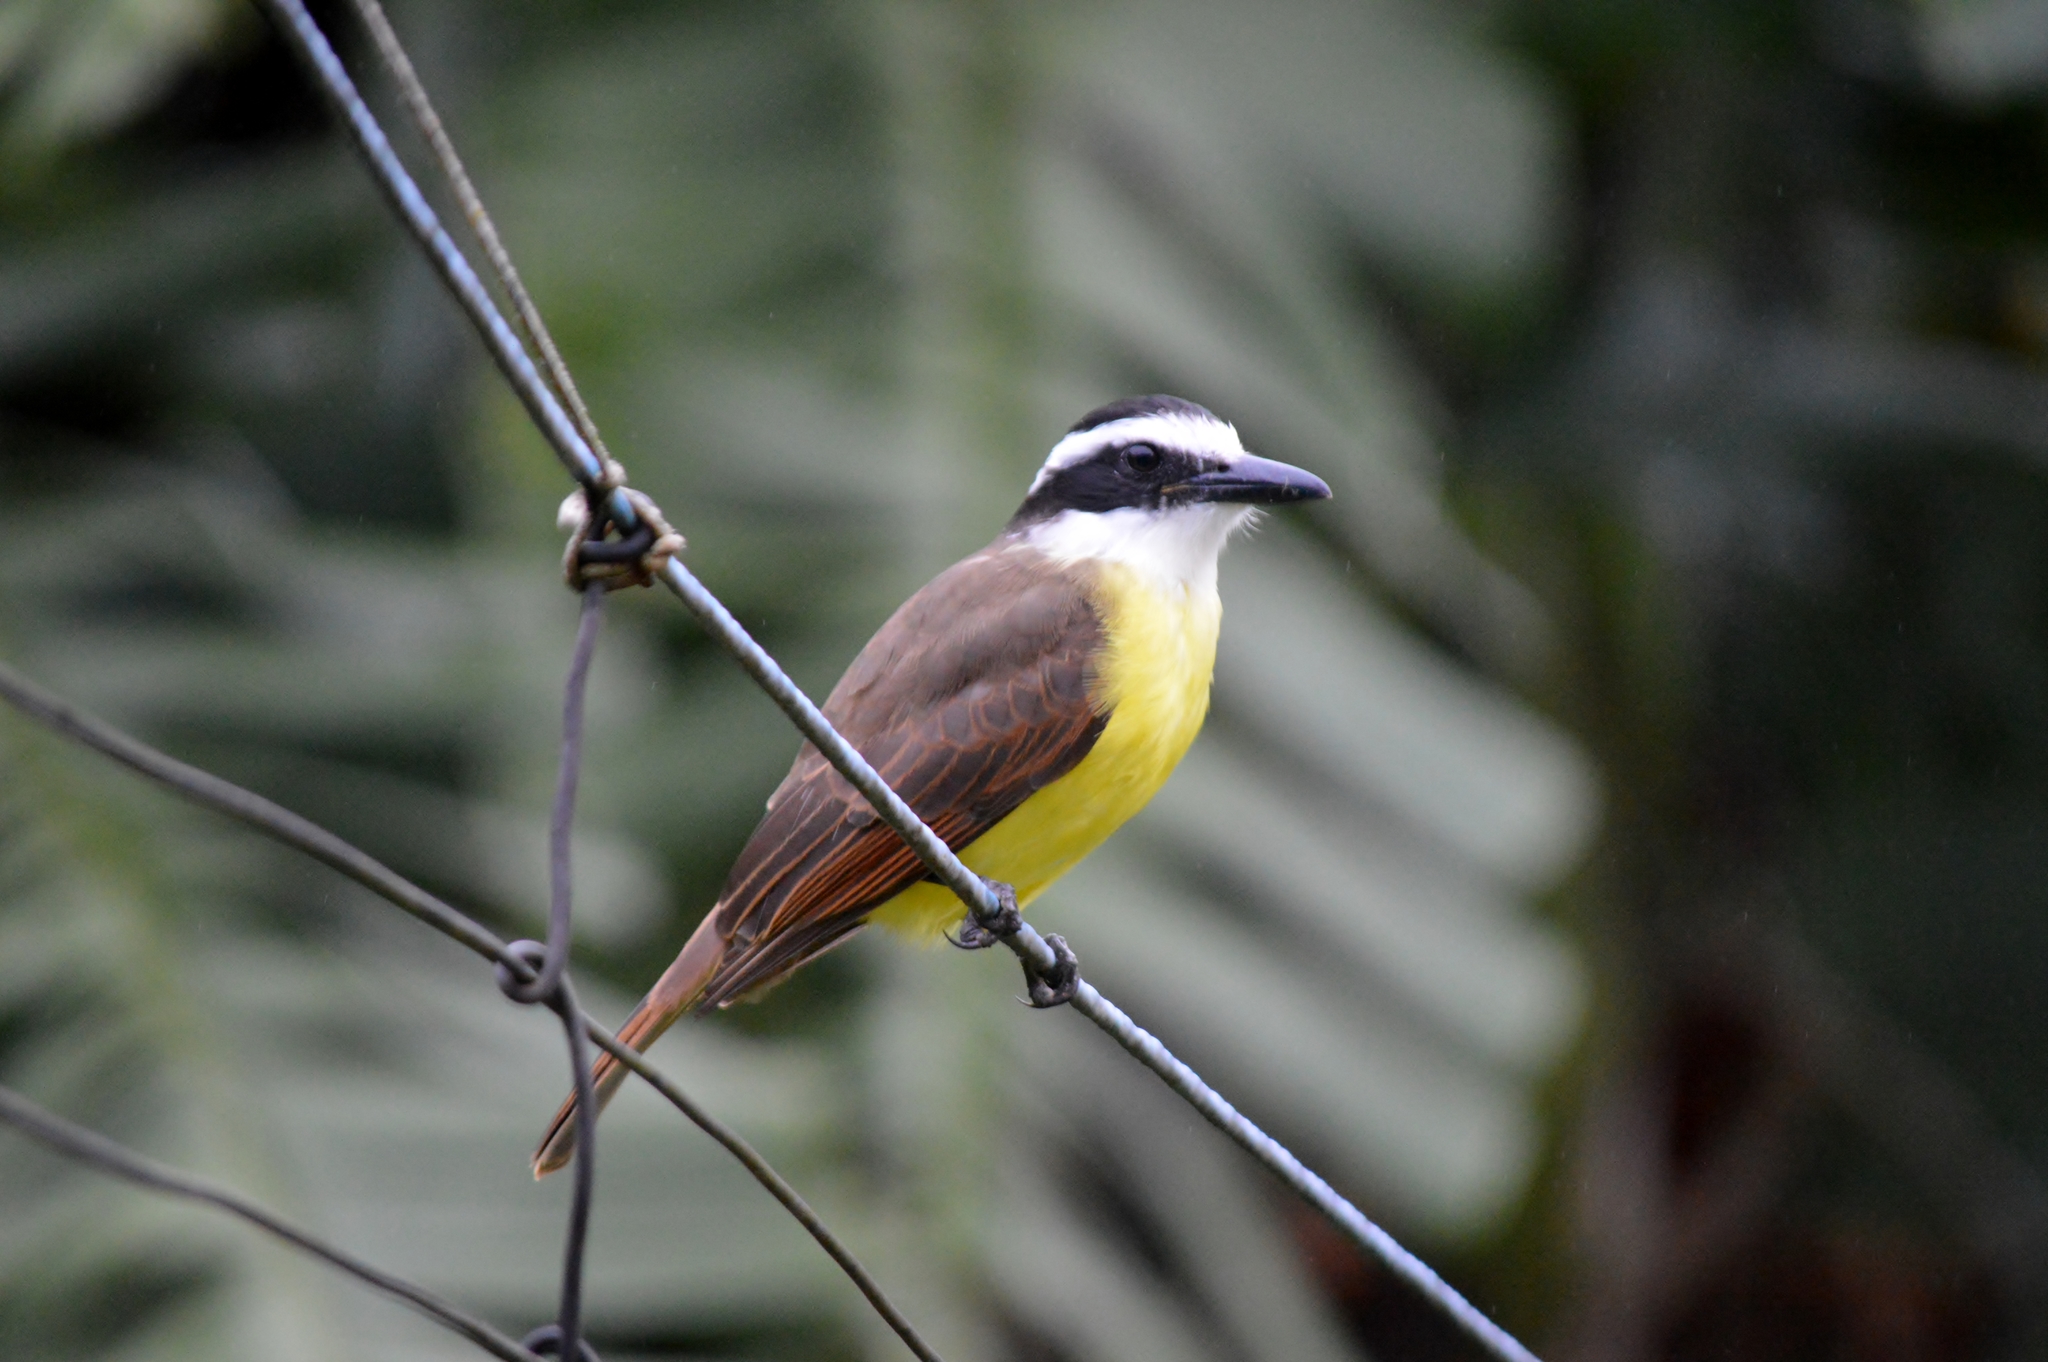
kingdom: Animalia
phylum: Chordata
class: Aves
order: Passeriformes
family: Tyrannidae
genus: Pitangus
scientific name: Pitangus sulphuratus
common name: Great kiskadee
